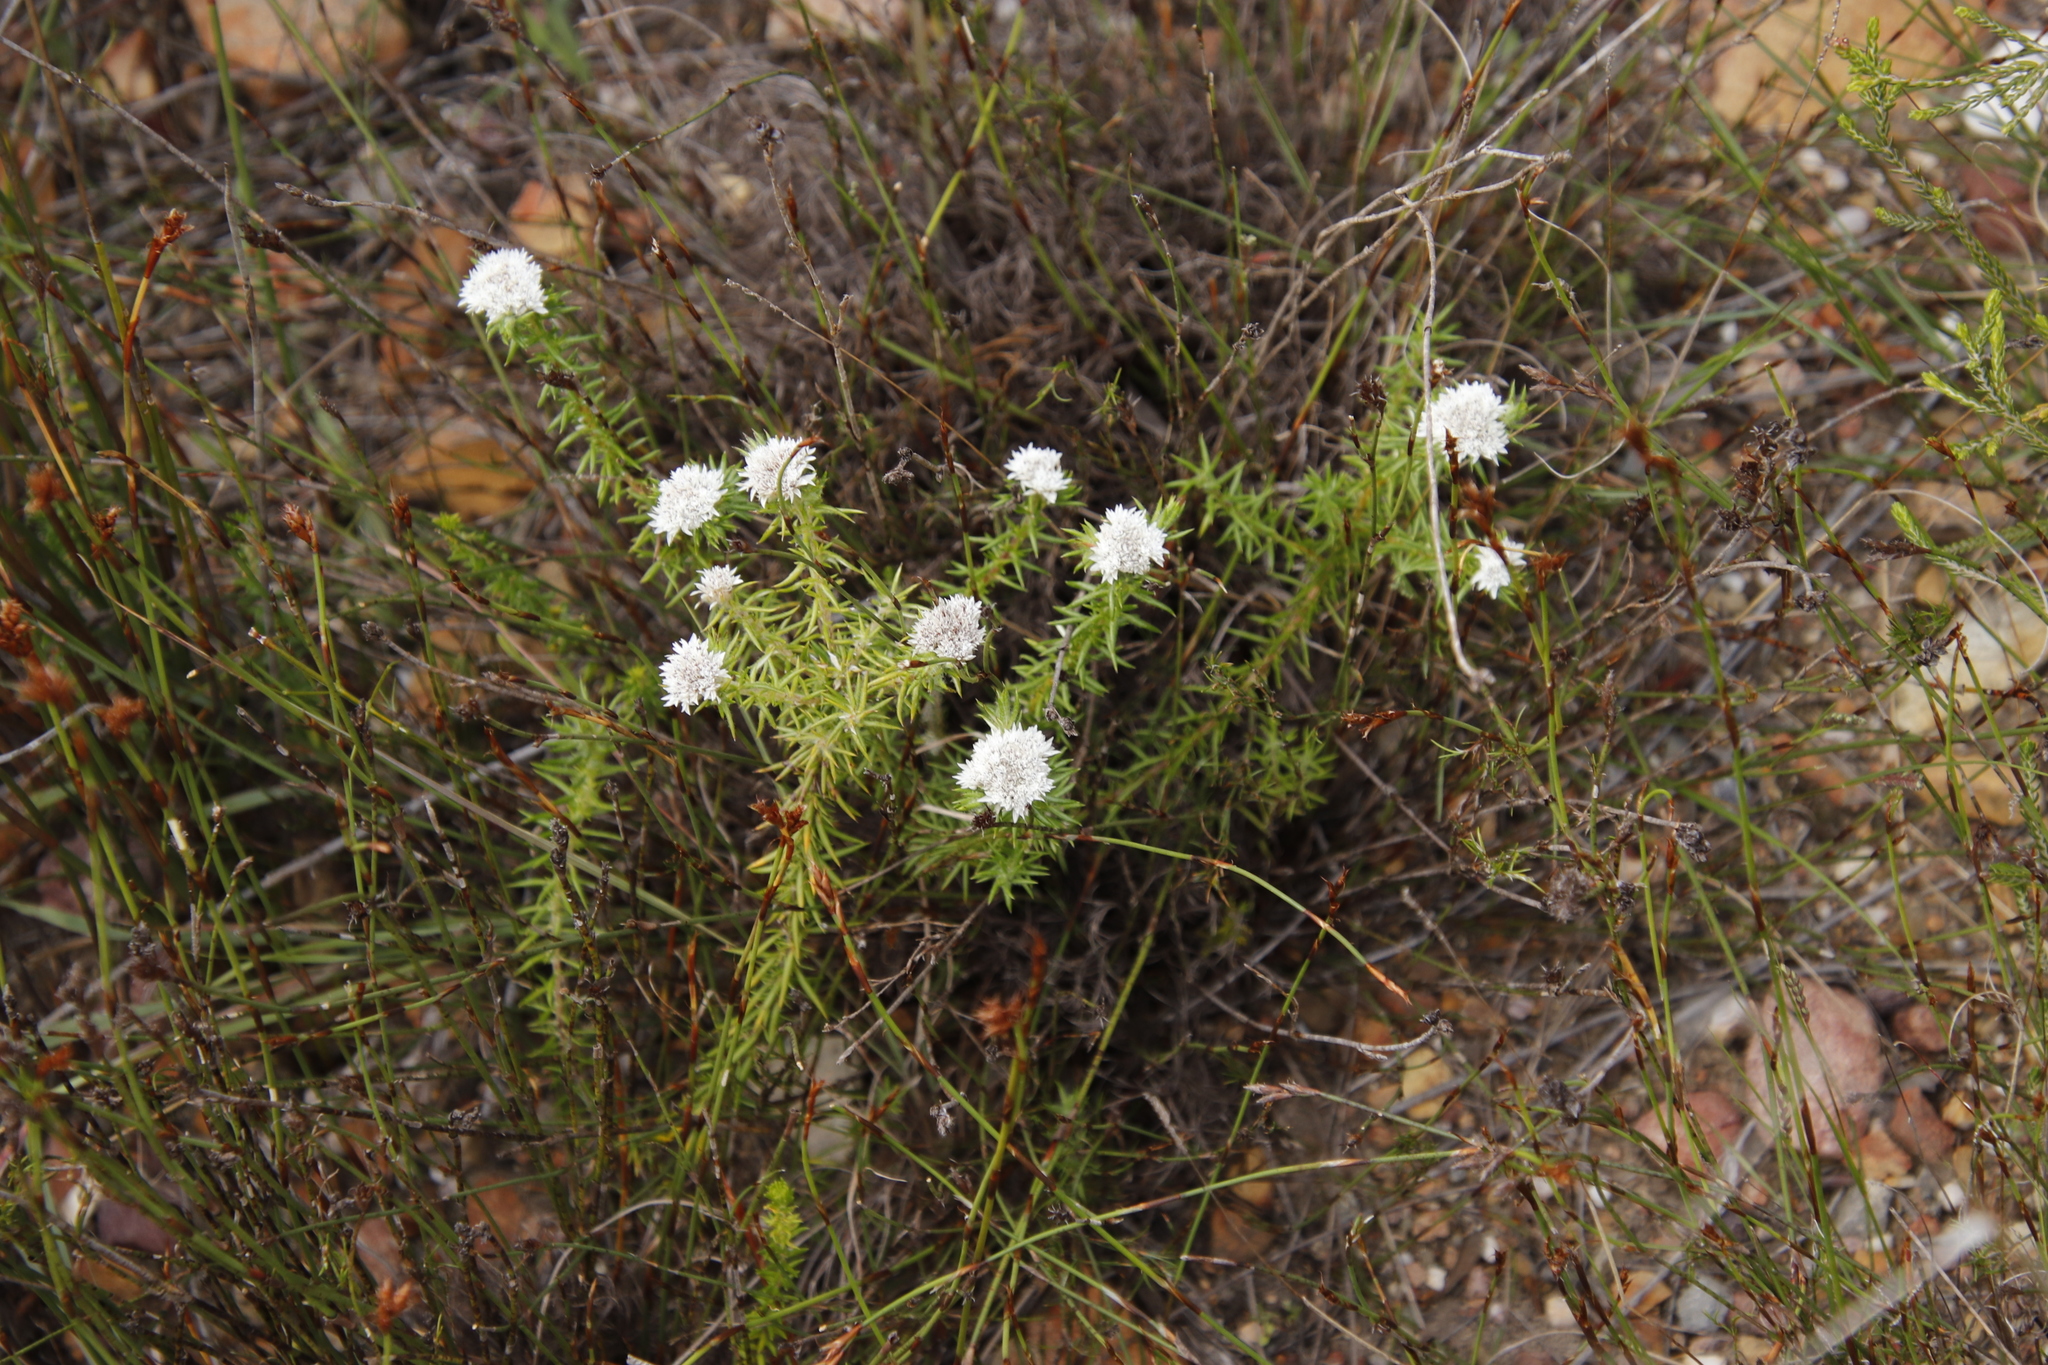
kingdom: Plantae
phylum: Tracheophyta
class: Magnoliopsida
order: Asterales
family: Asteraceae
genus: Metalasia
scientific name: Metalasia inversa
